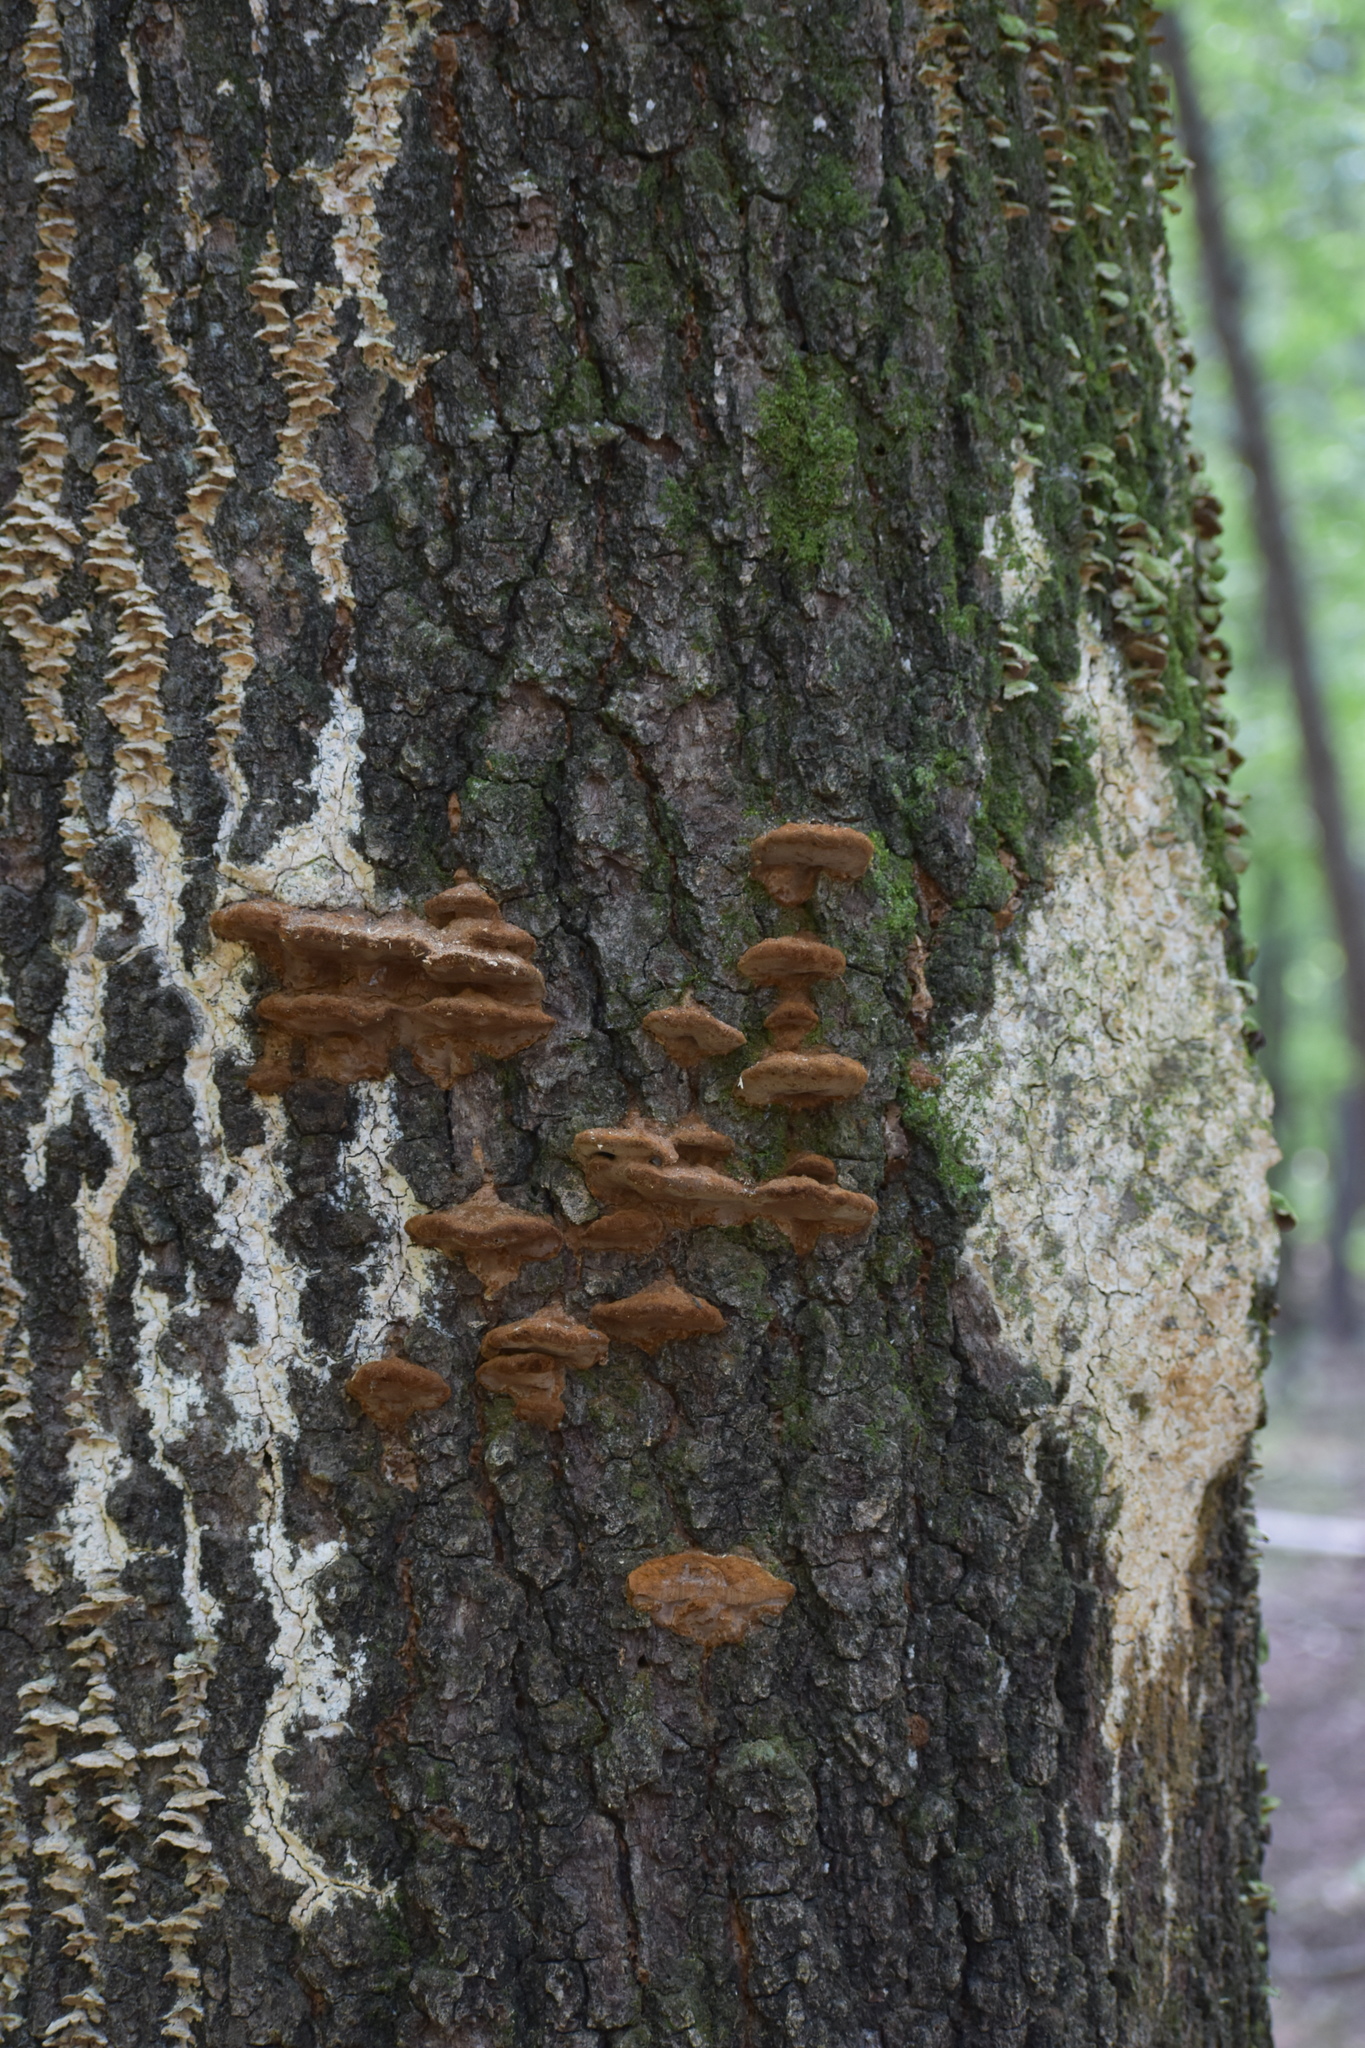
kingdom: Fungi
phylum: Basidiomycota
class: Agaricomycetes
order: Hymenochaetales
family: Hymenochaetaceae
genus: Phellinus
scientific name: Phellinus gilvus
